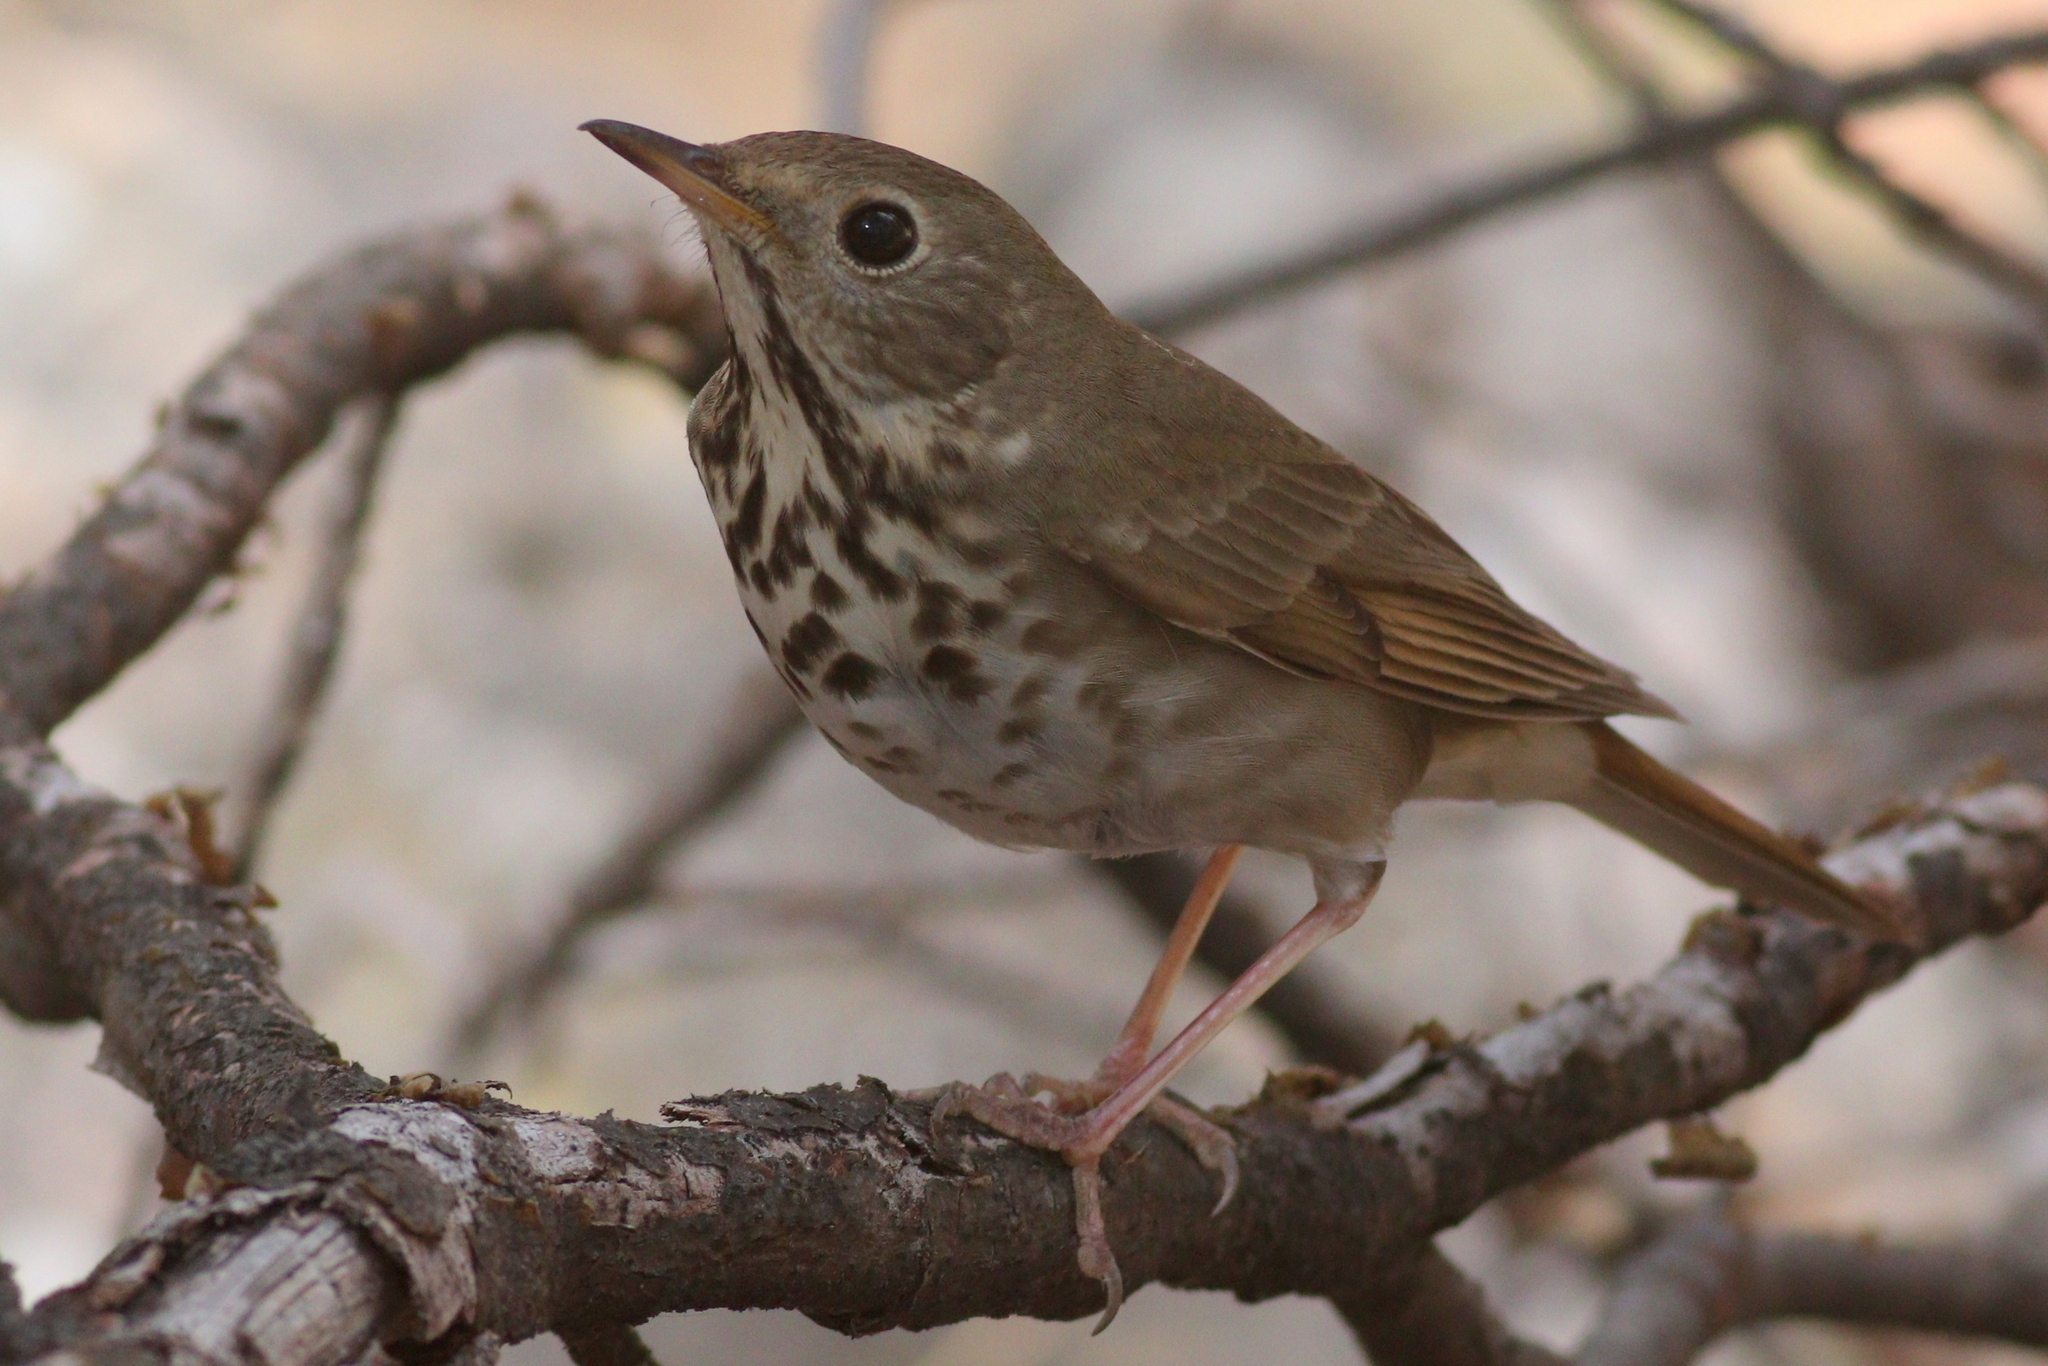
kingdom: Animalia
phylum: Chordata
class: Aves
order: Passeriformes
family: Turdidae
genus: Catharus
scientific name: Catharus guttatus
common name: Hermit thrush
